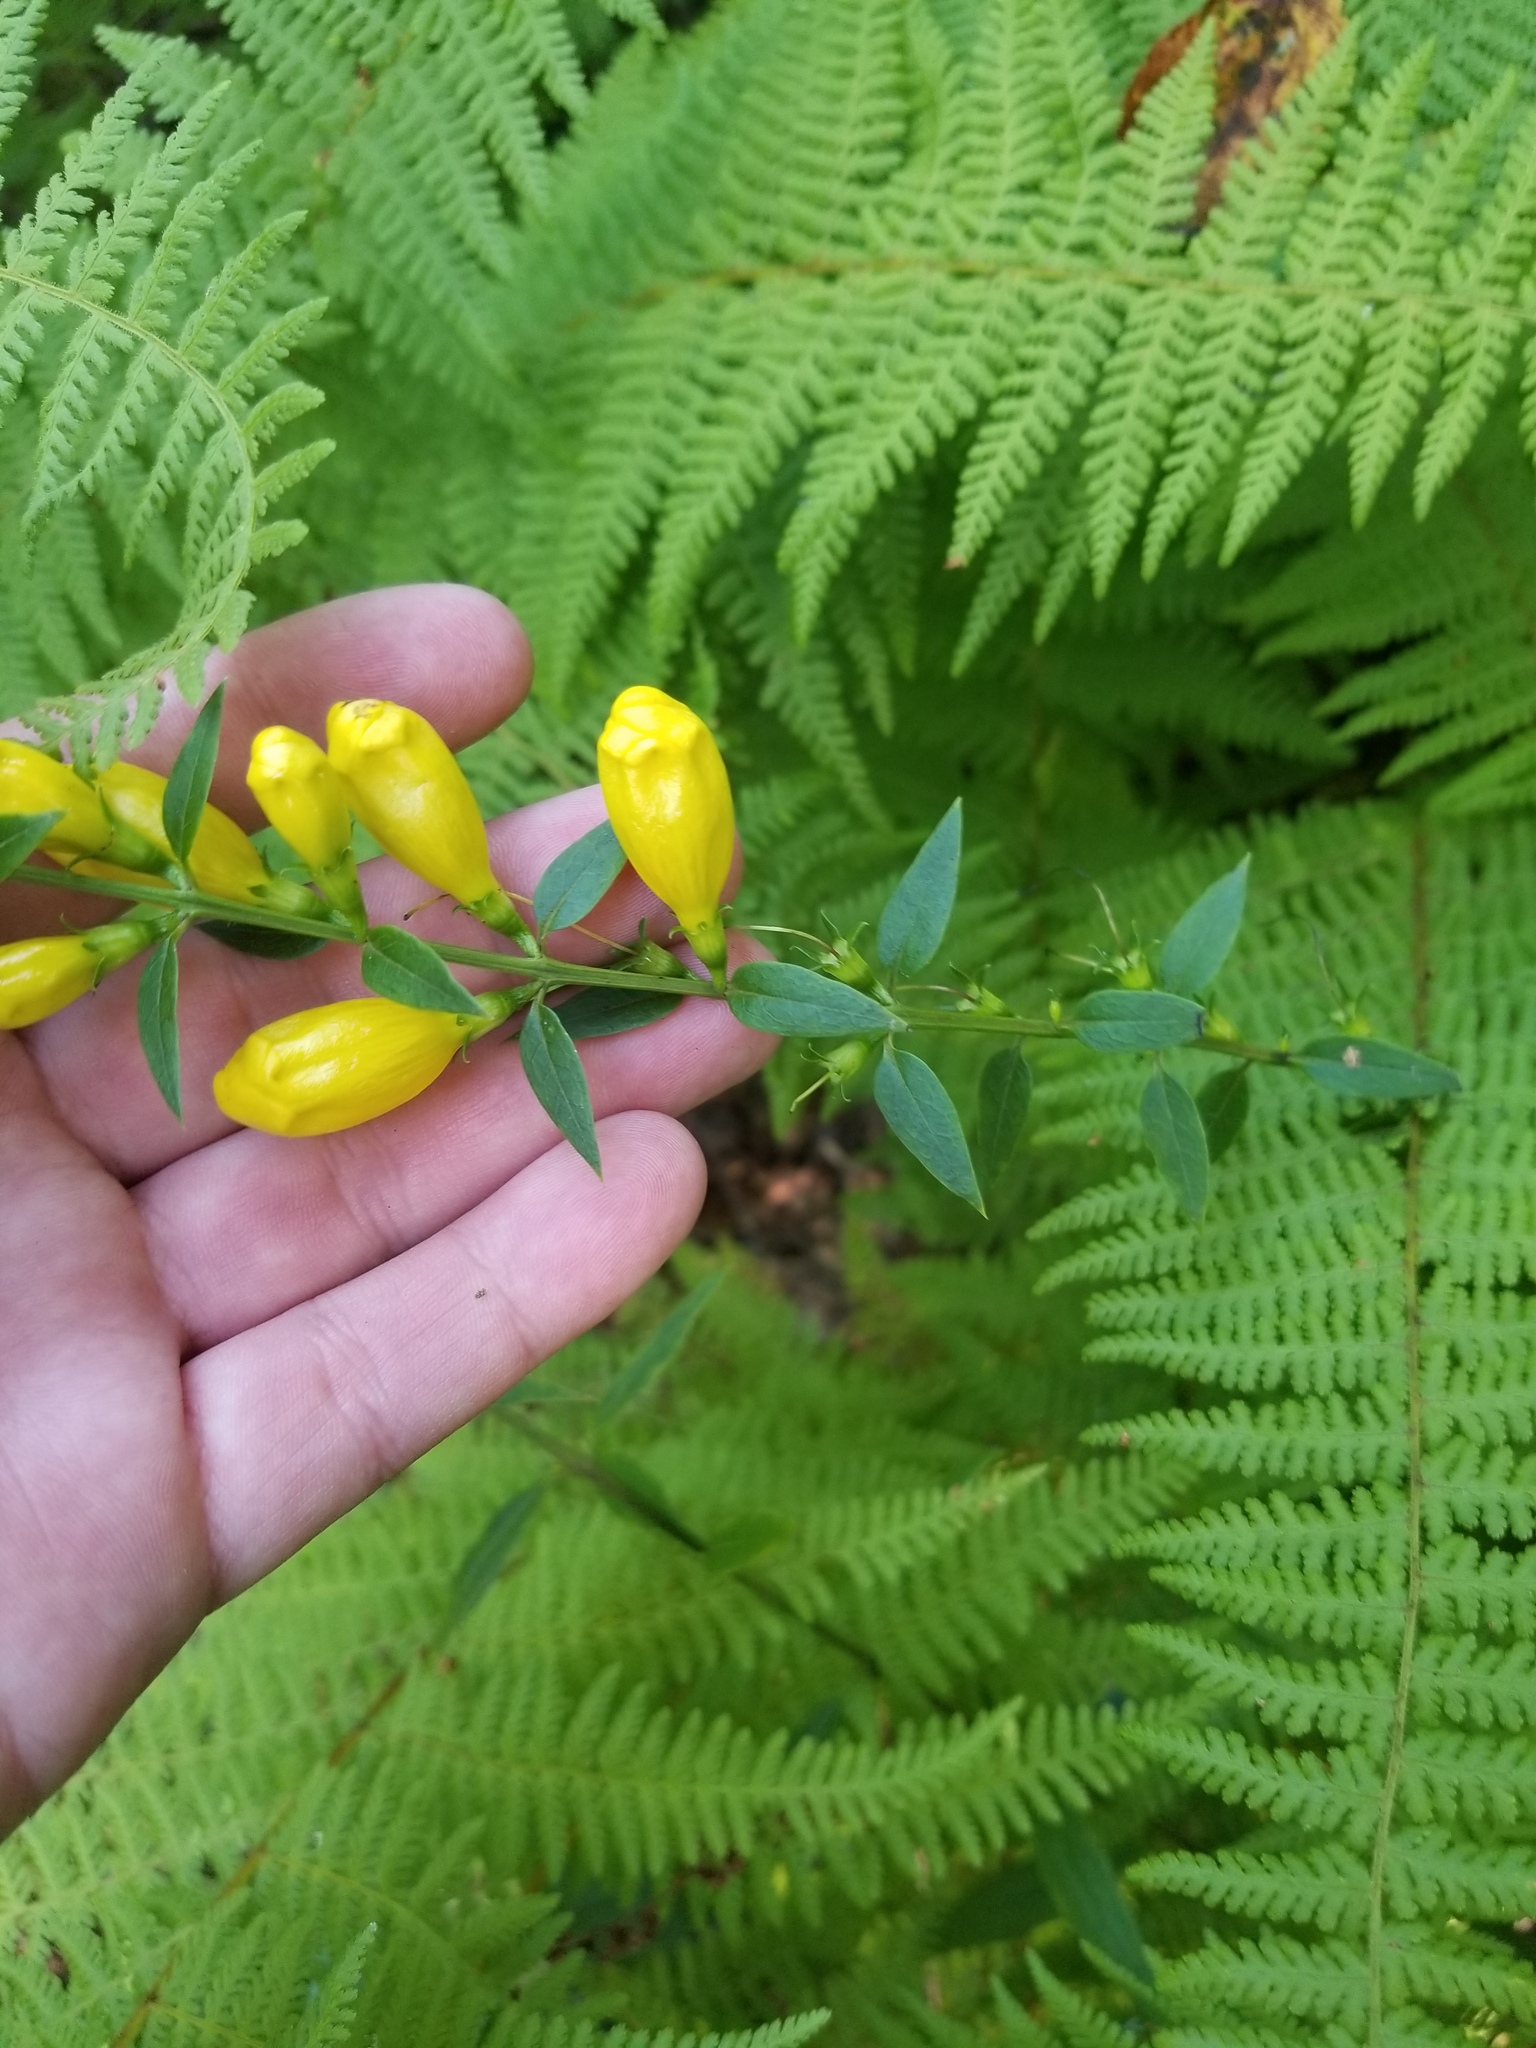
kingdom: Plantae
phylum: Tracheophyta
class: Magnoliopsida
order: Lamiales
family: Orobanchaceae
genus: Aureolaria
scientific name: Aureolaria levigata
